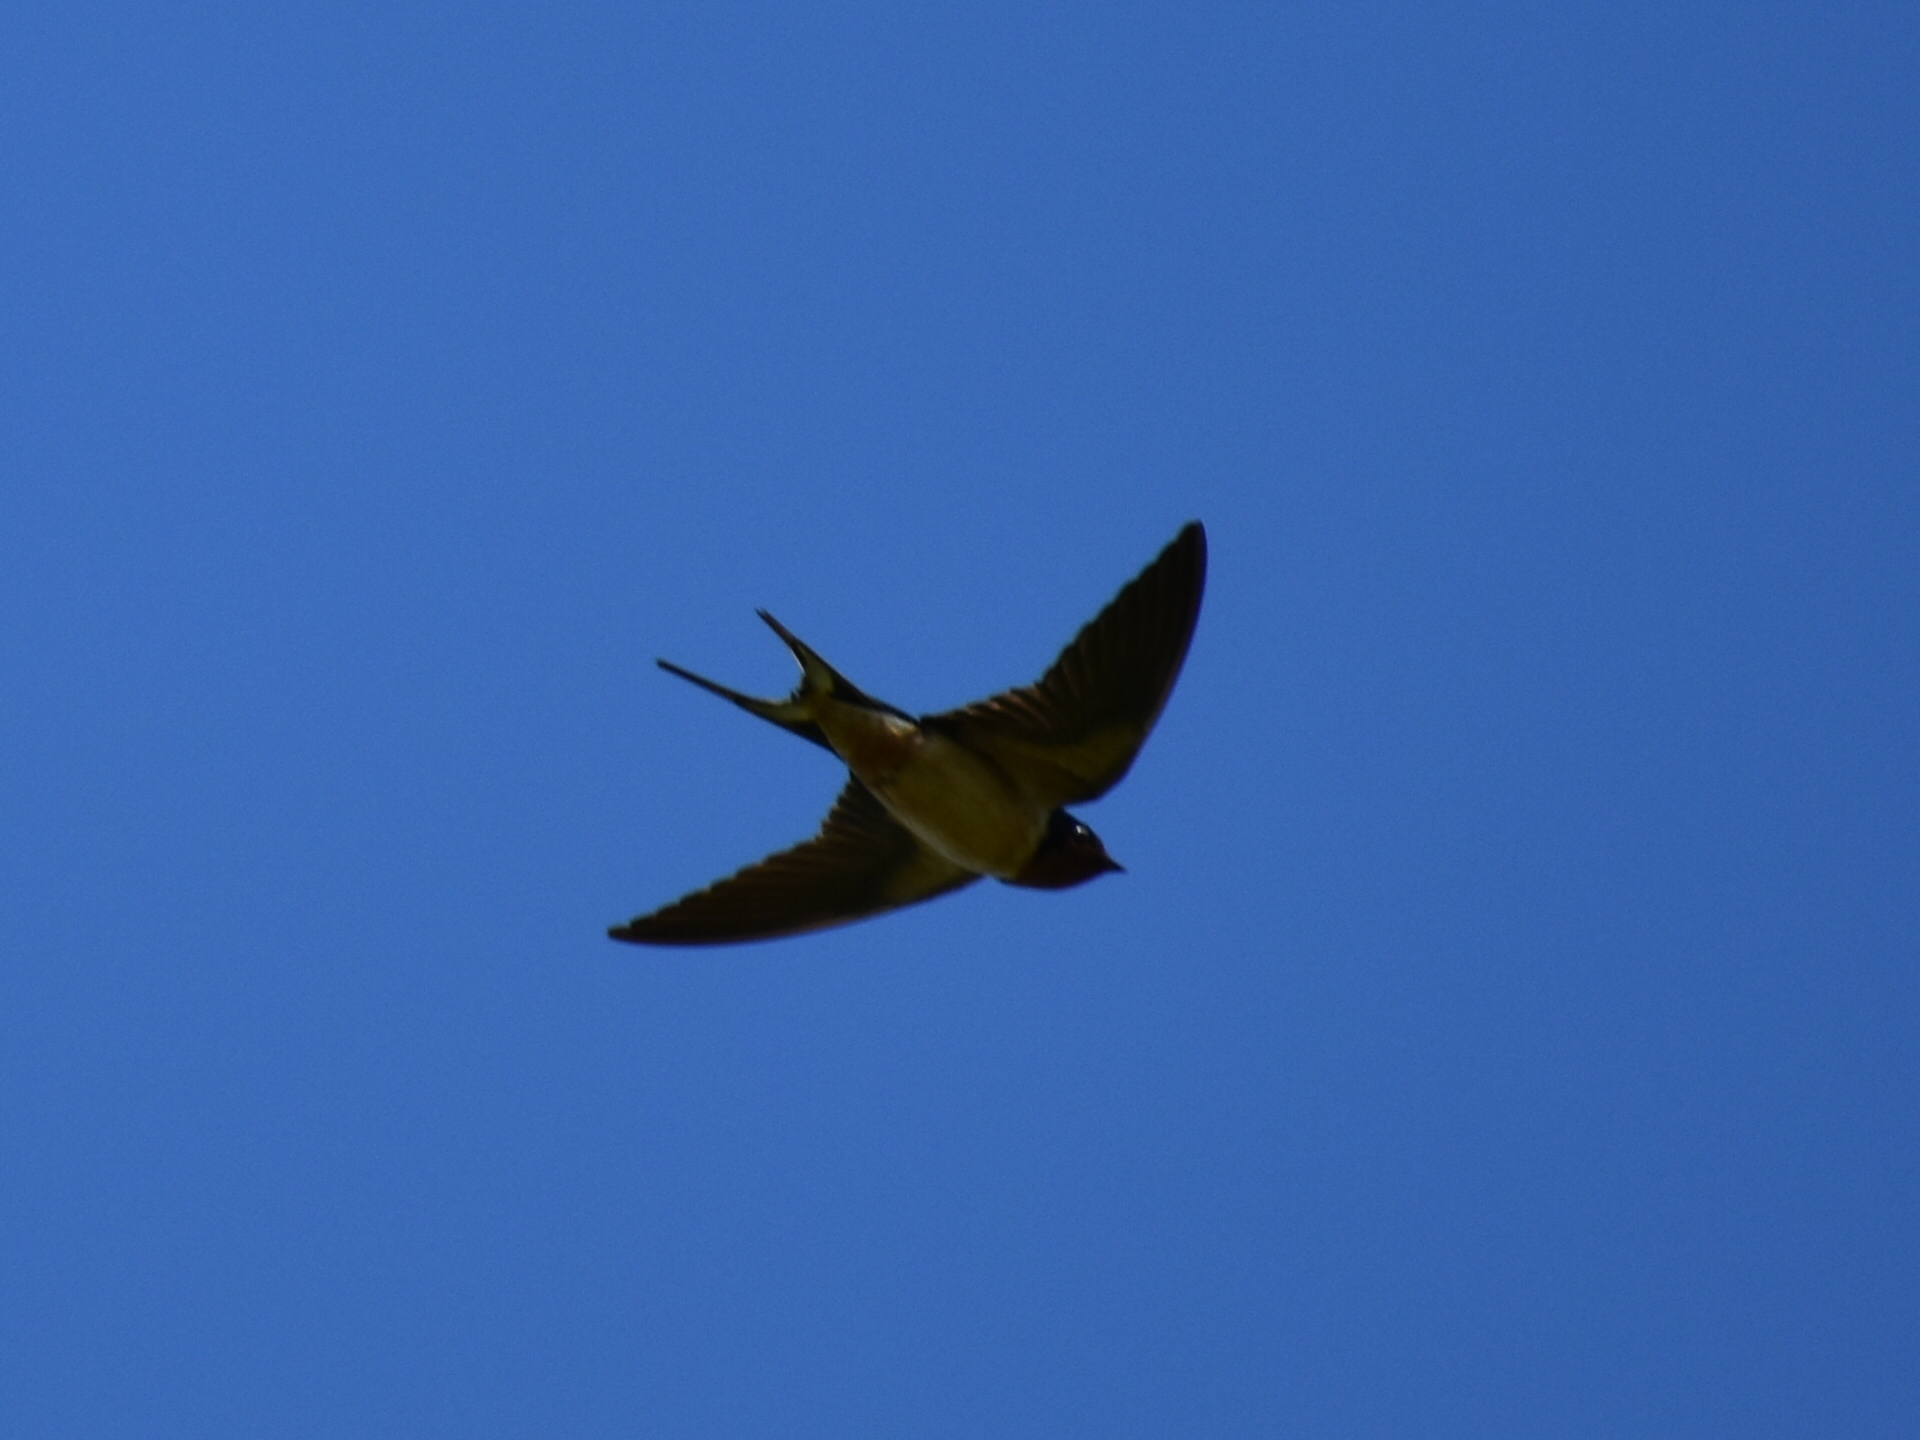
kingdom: Animalia
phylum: Chordata
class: Aves
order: Passeriformes
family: Hirundinidae
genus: Hirundo
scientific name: Hirundo rustica
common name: Barn swallow
